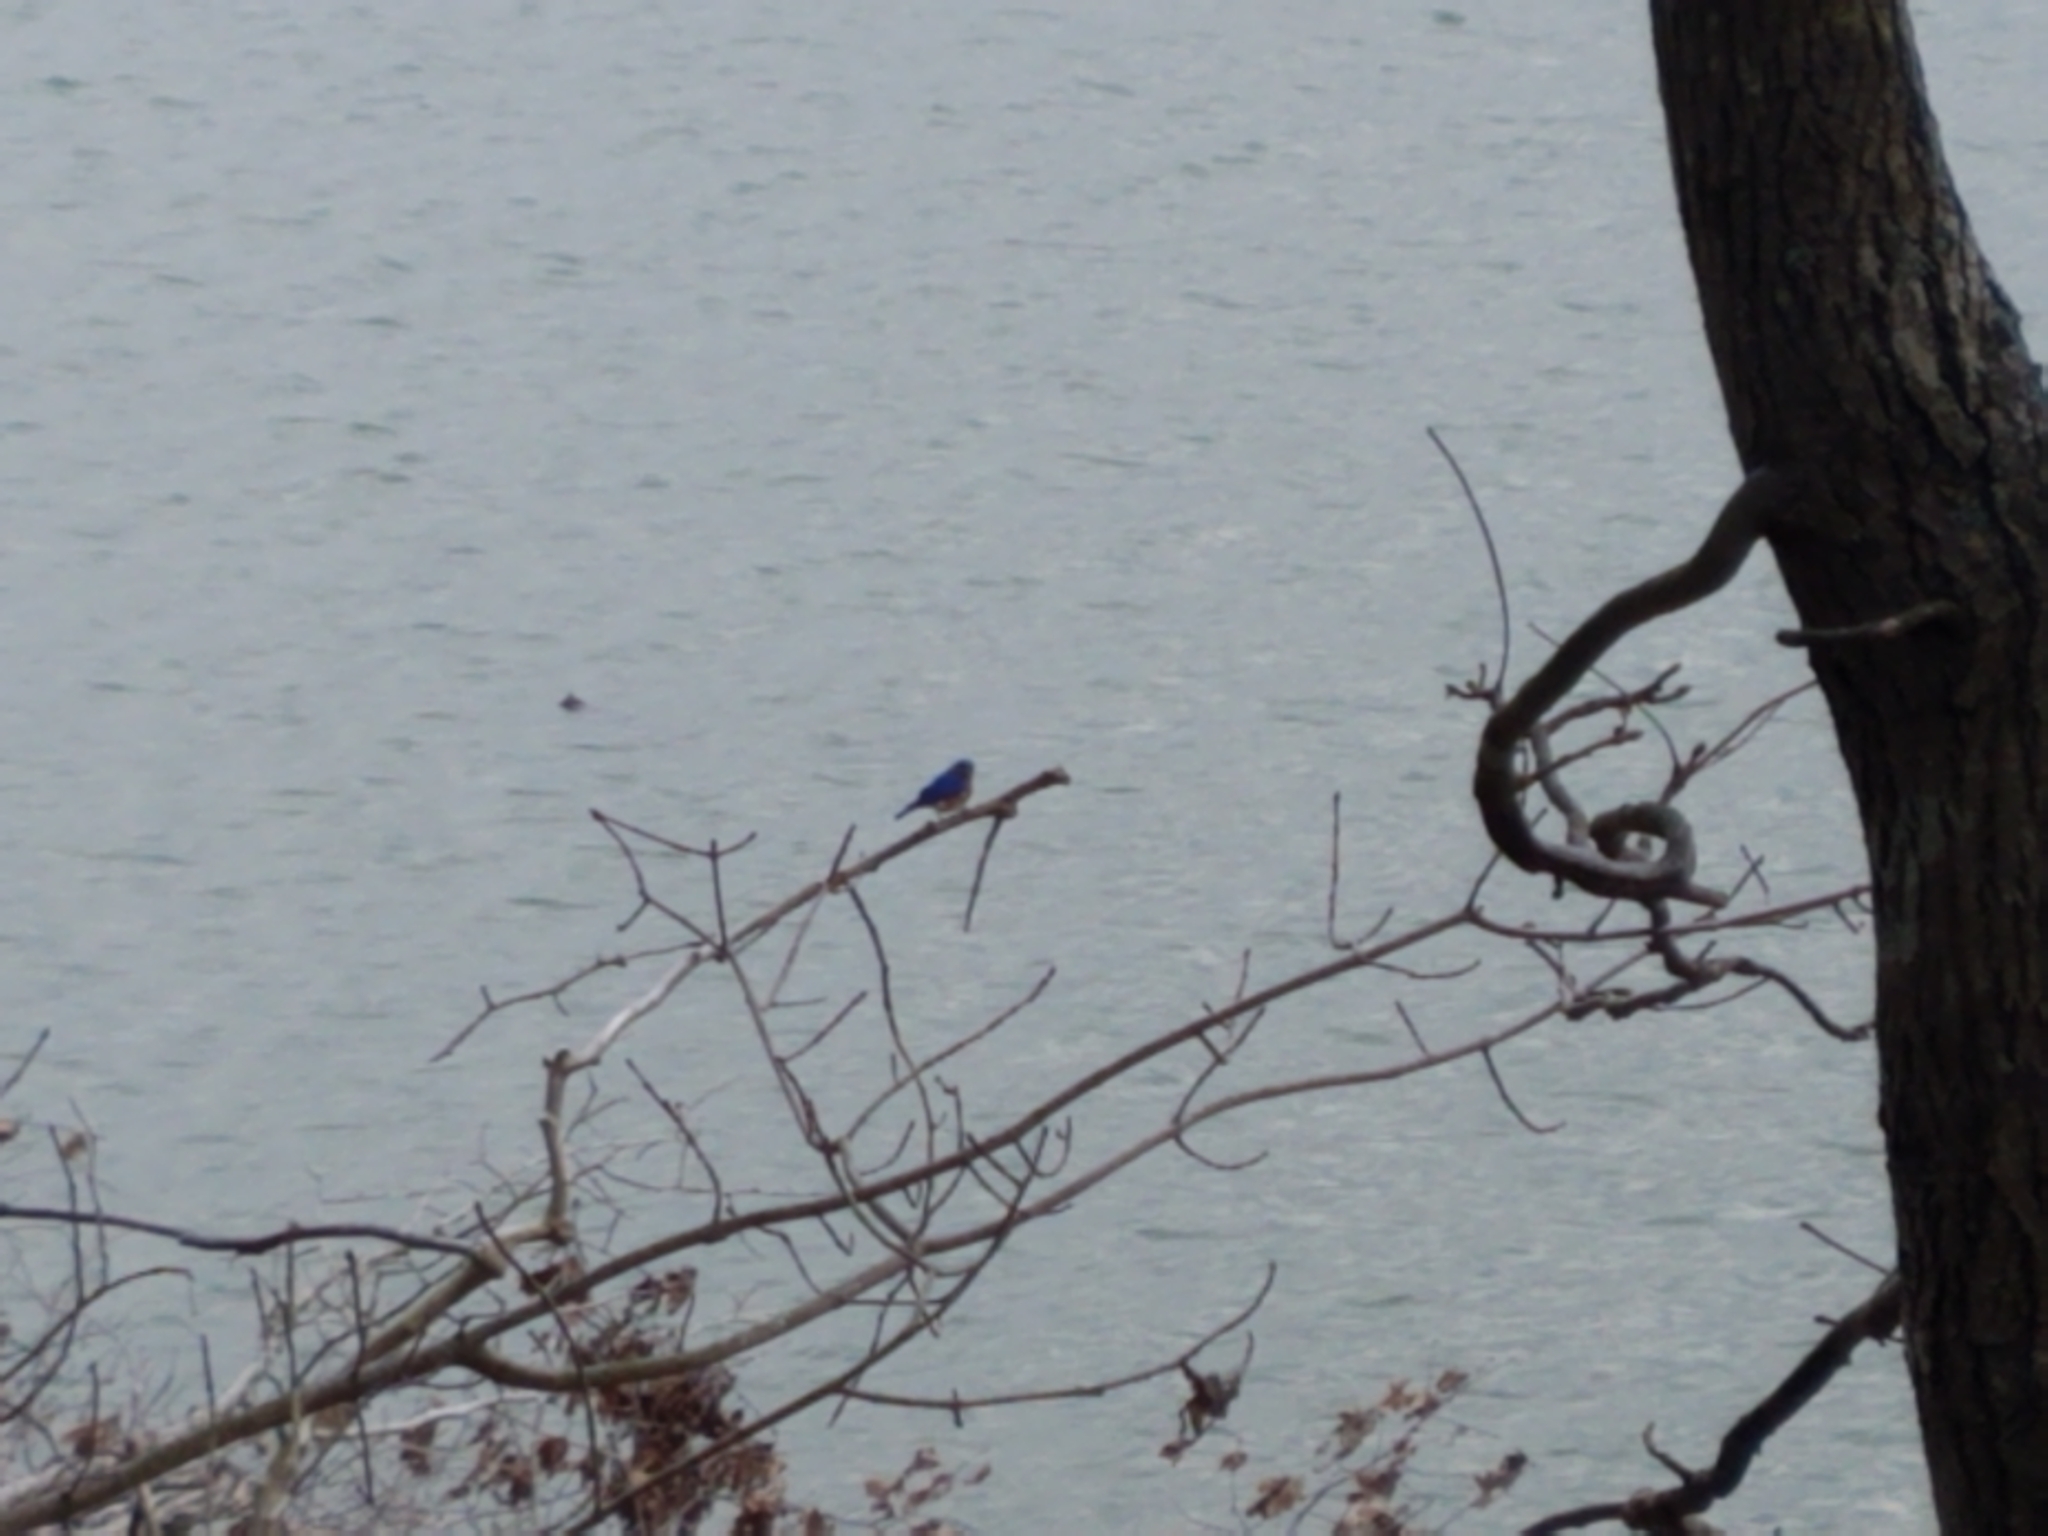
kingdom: Animalia
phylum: Chordata
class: Aves
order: Passeriformes
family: Turdidae
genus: Sialia
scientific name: Sialia sialis
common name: Eastern bluebird
